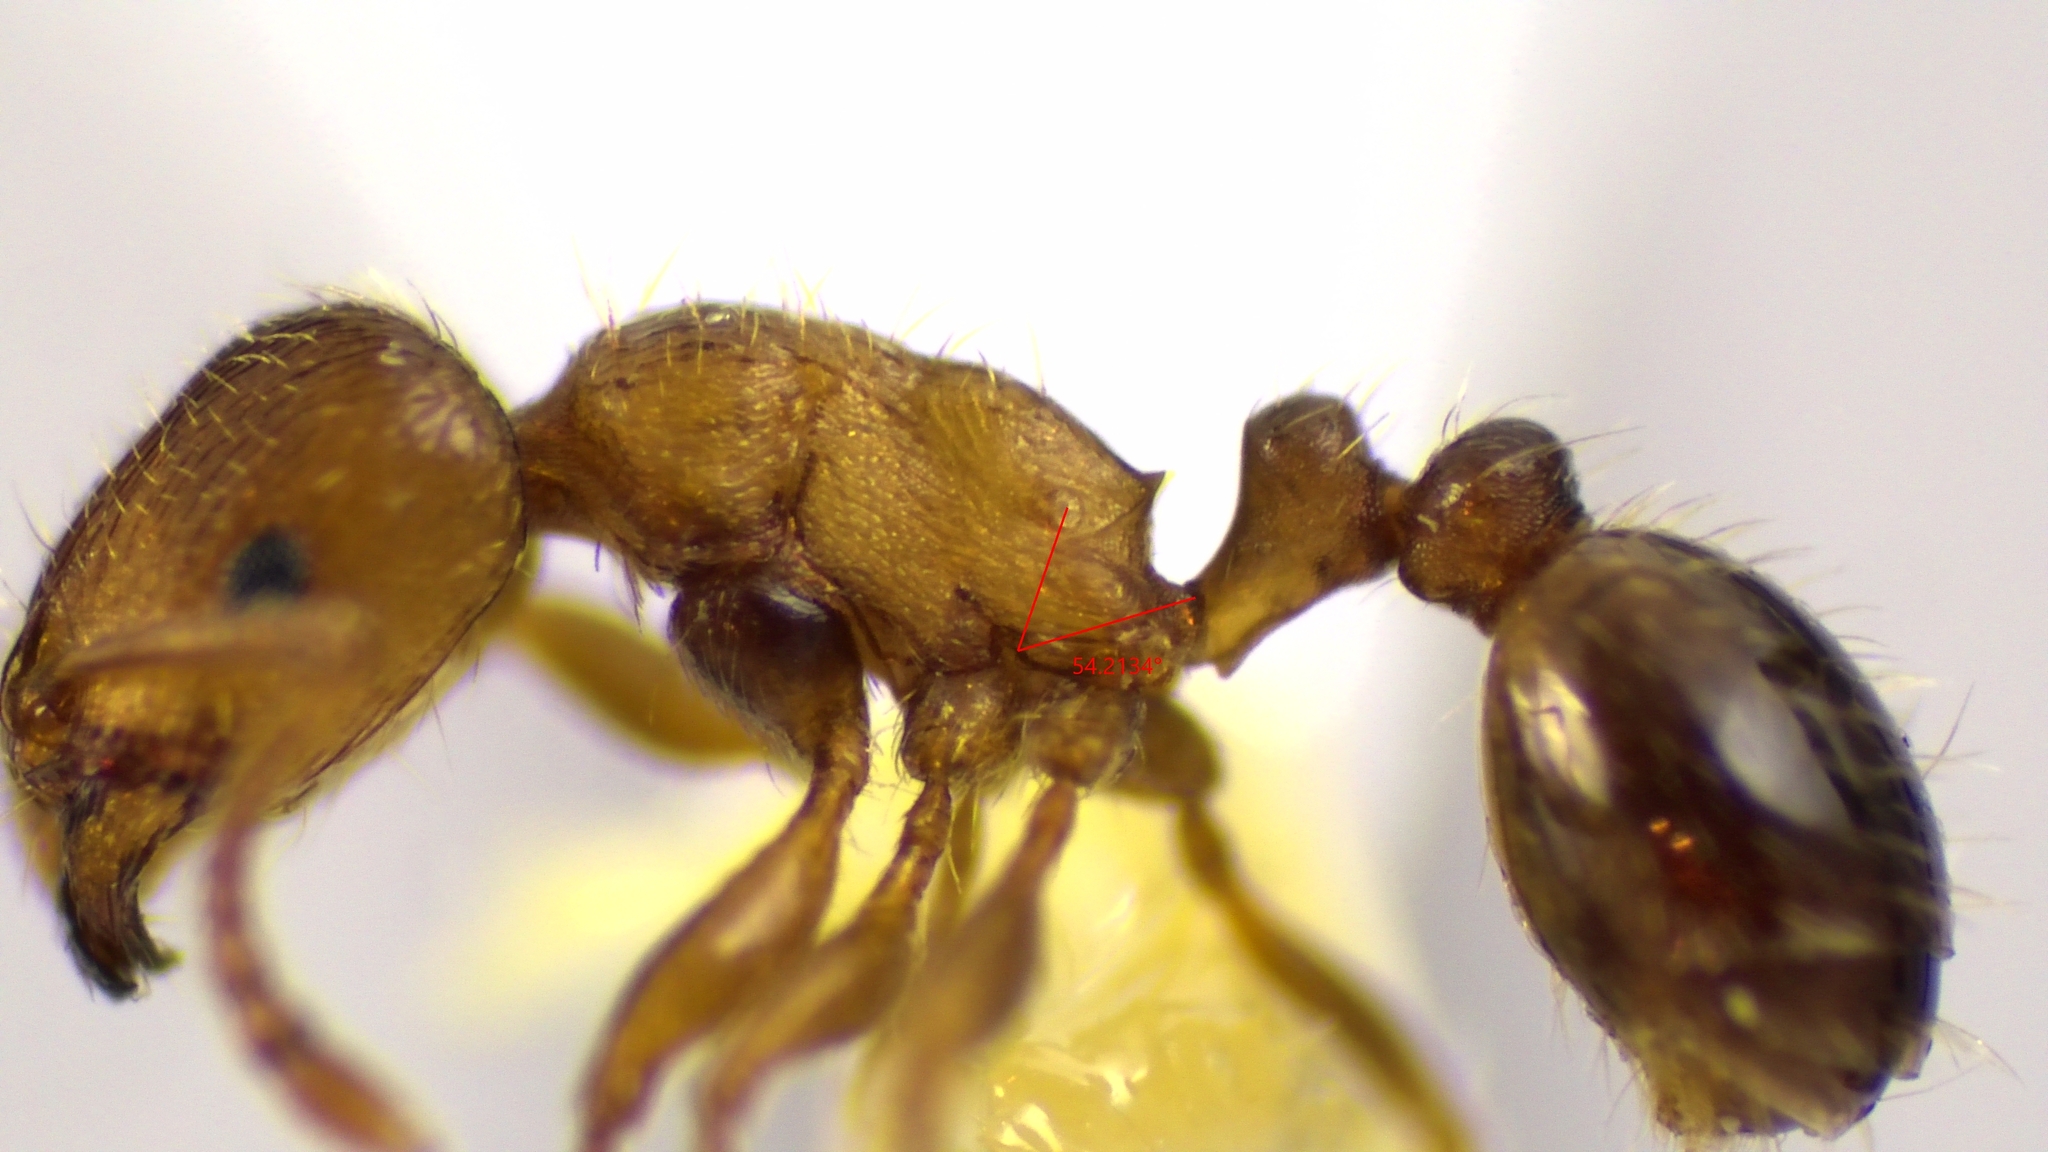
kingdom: Animalia
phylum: Arthropoda
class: Insecta
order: Hymenoptera
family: Formicidae
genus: Tetramorium
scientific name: Tetramorium immigrans
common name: Pavement ant
